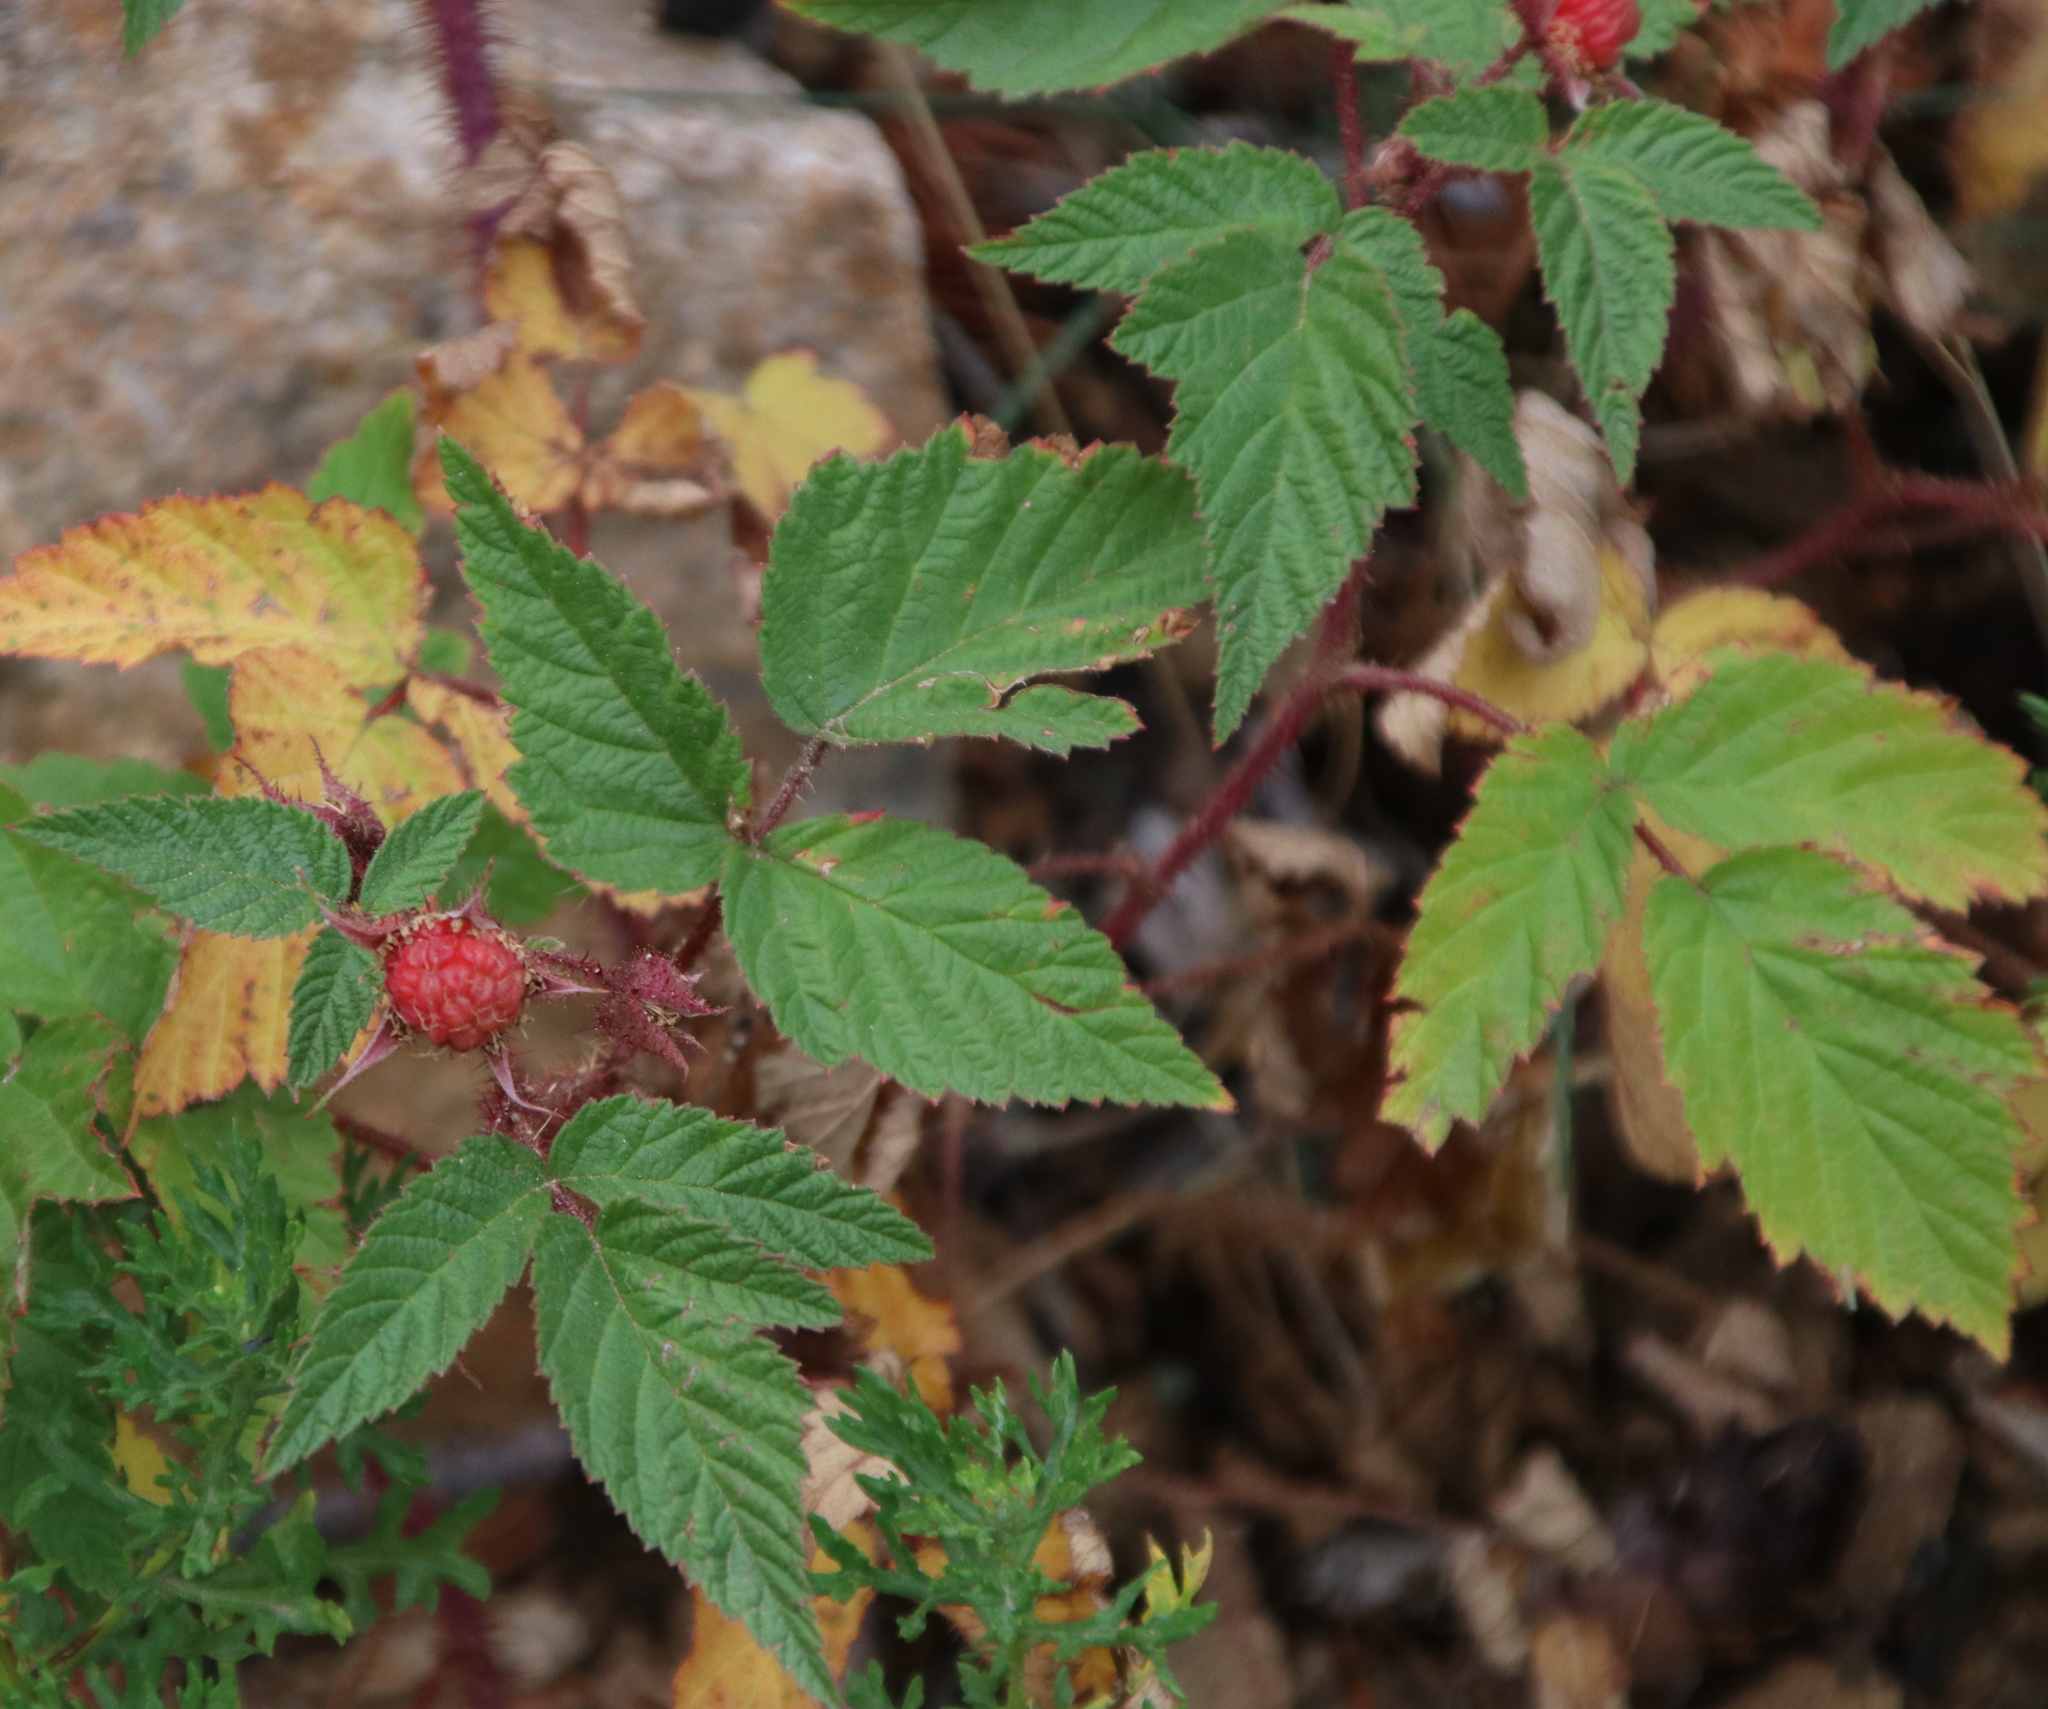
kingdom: Plantae
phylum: Tracheophyta
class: Magnoliopsida
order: Rosales
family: Rosaceae
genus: Rubus
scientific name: Rubus idaeus
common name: Raspberry
